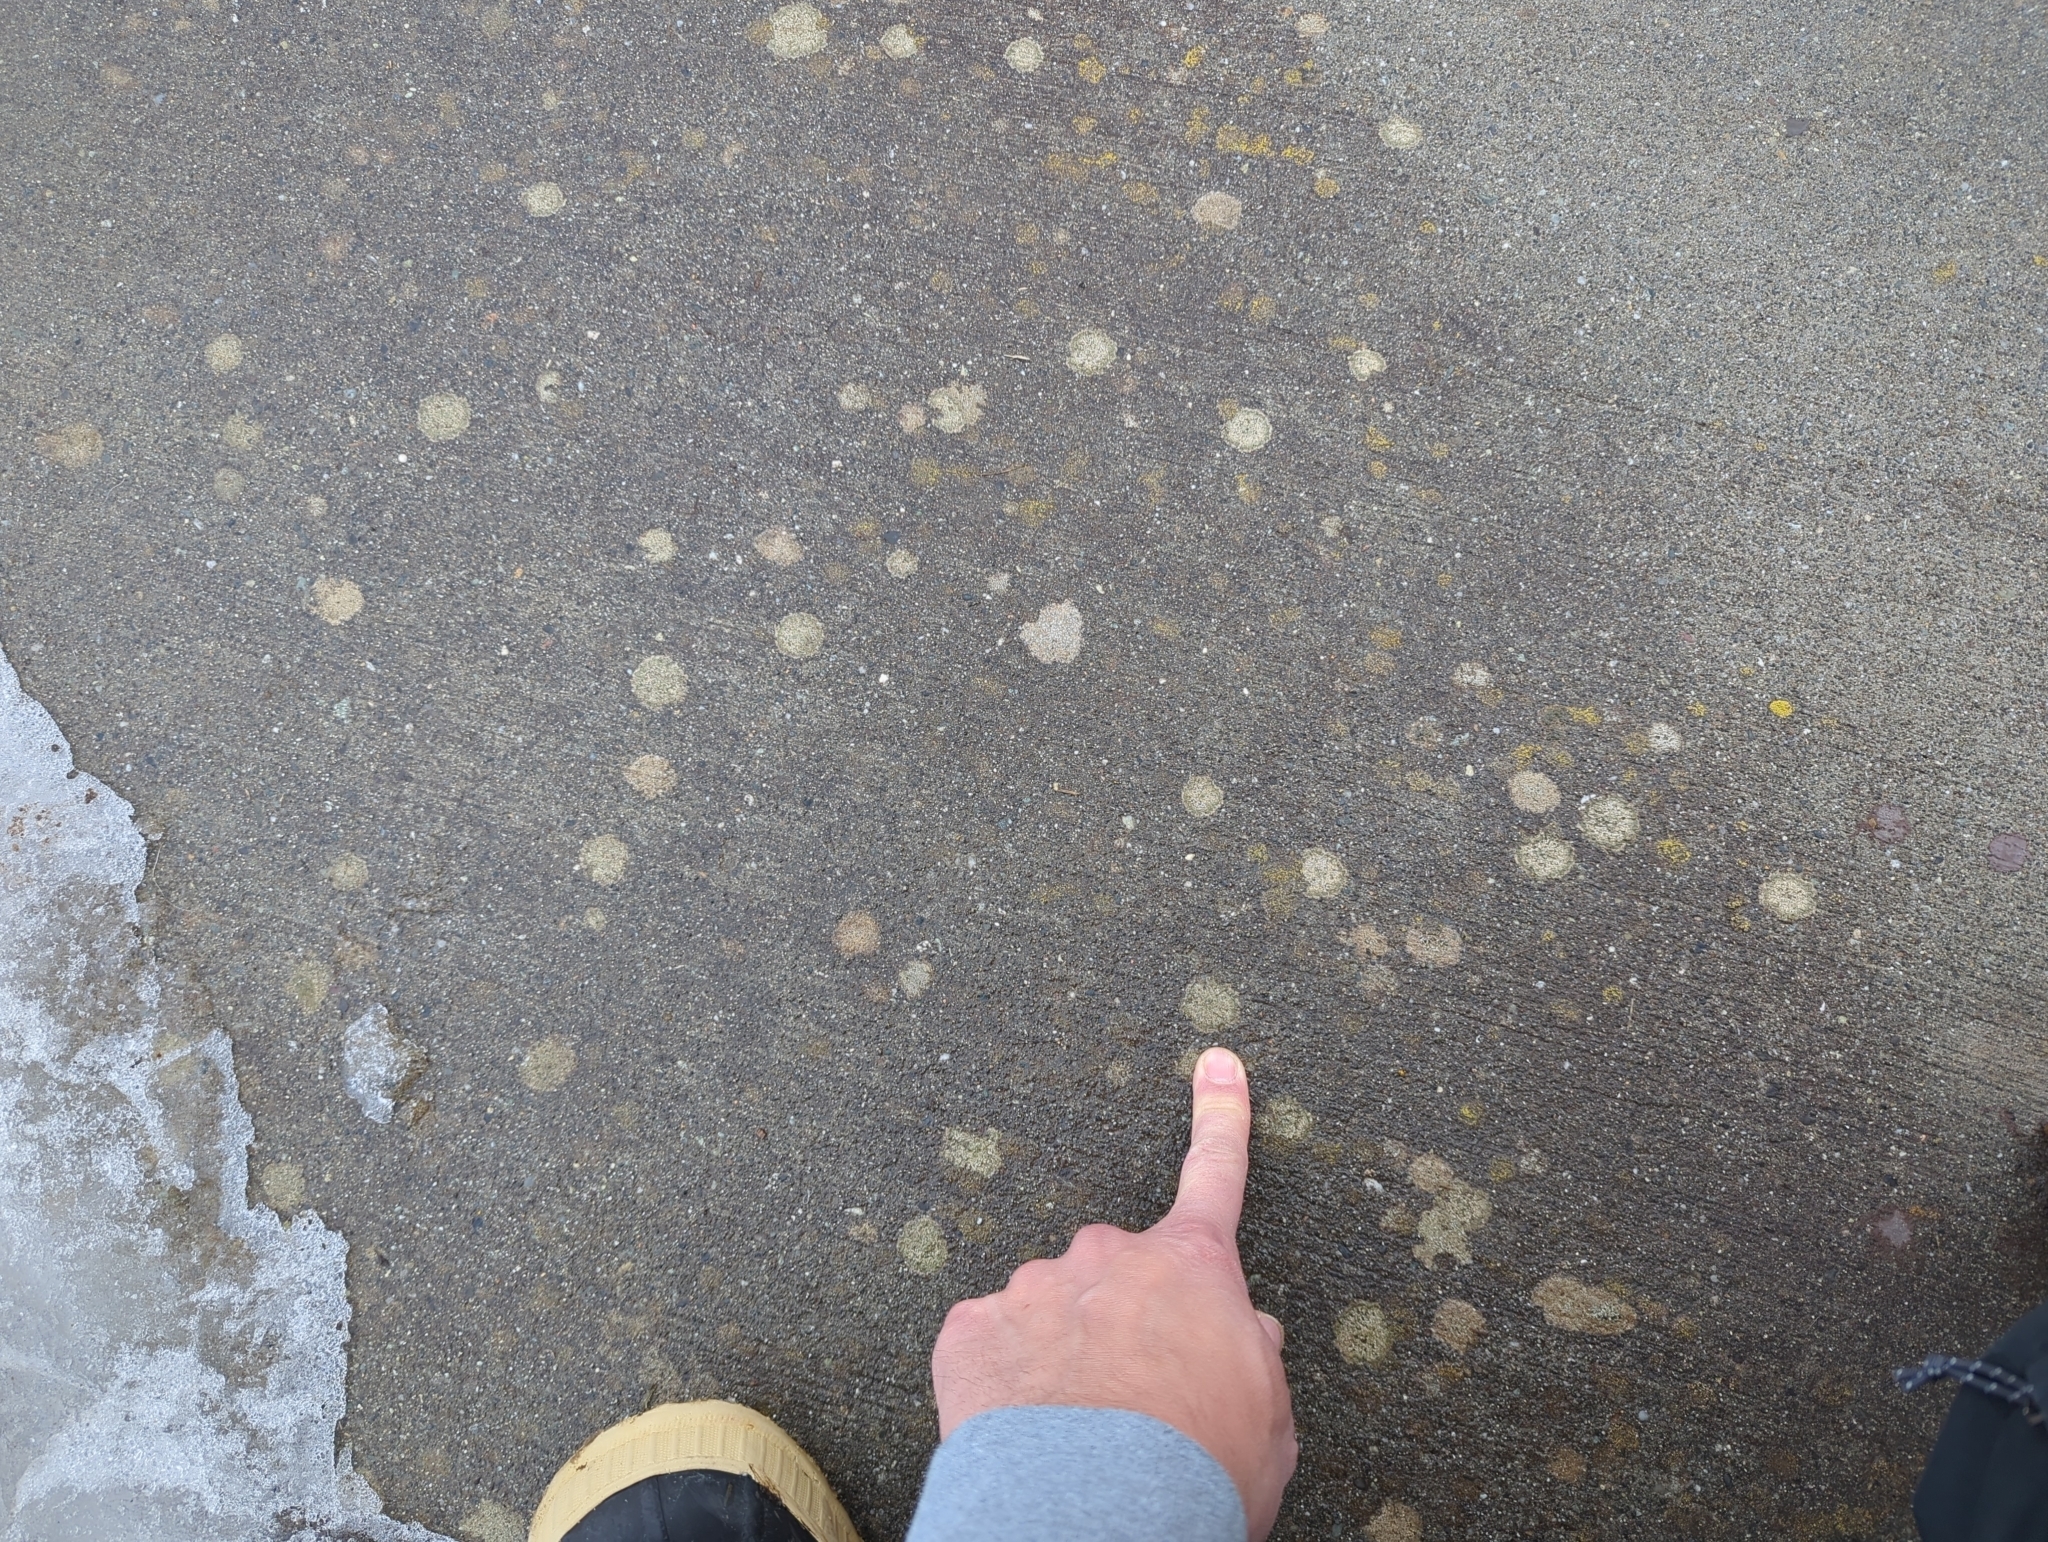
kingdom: Fungi
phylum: Ascomycota
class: Lecanoromycetes
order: Pertusariales
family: Megasporaceae
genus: Circinaria
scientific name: Circinaria contorta
